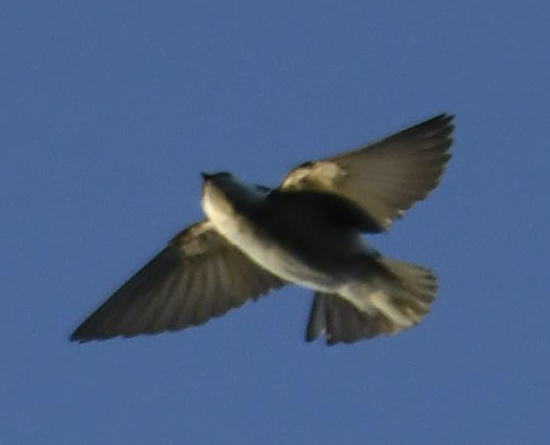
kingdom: Animalia
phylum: Chordata
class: Aves
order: Passeriformes
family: Hirundinidae
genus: Tachycineta
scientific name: Tachycineta thalassina
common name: Violet-green swallow
